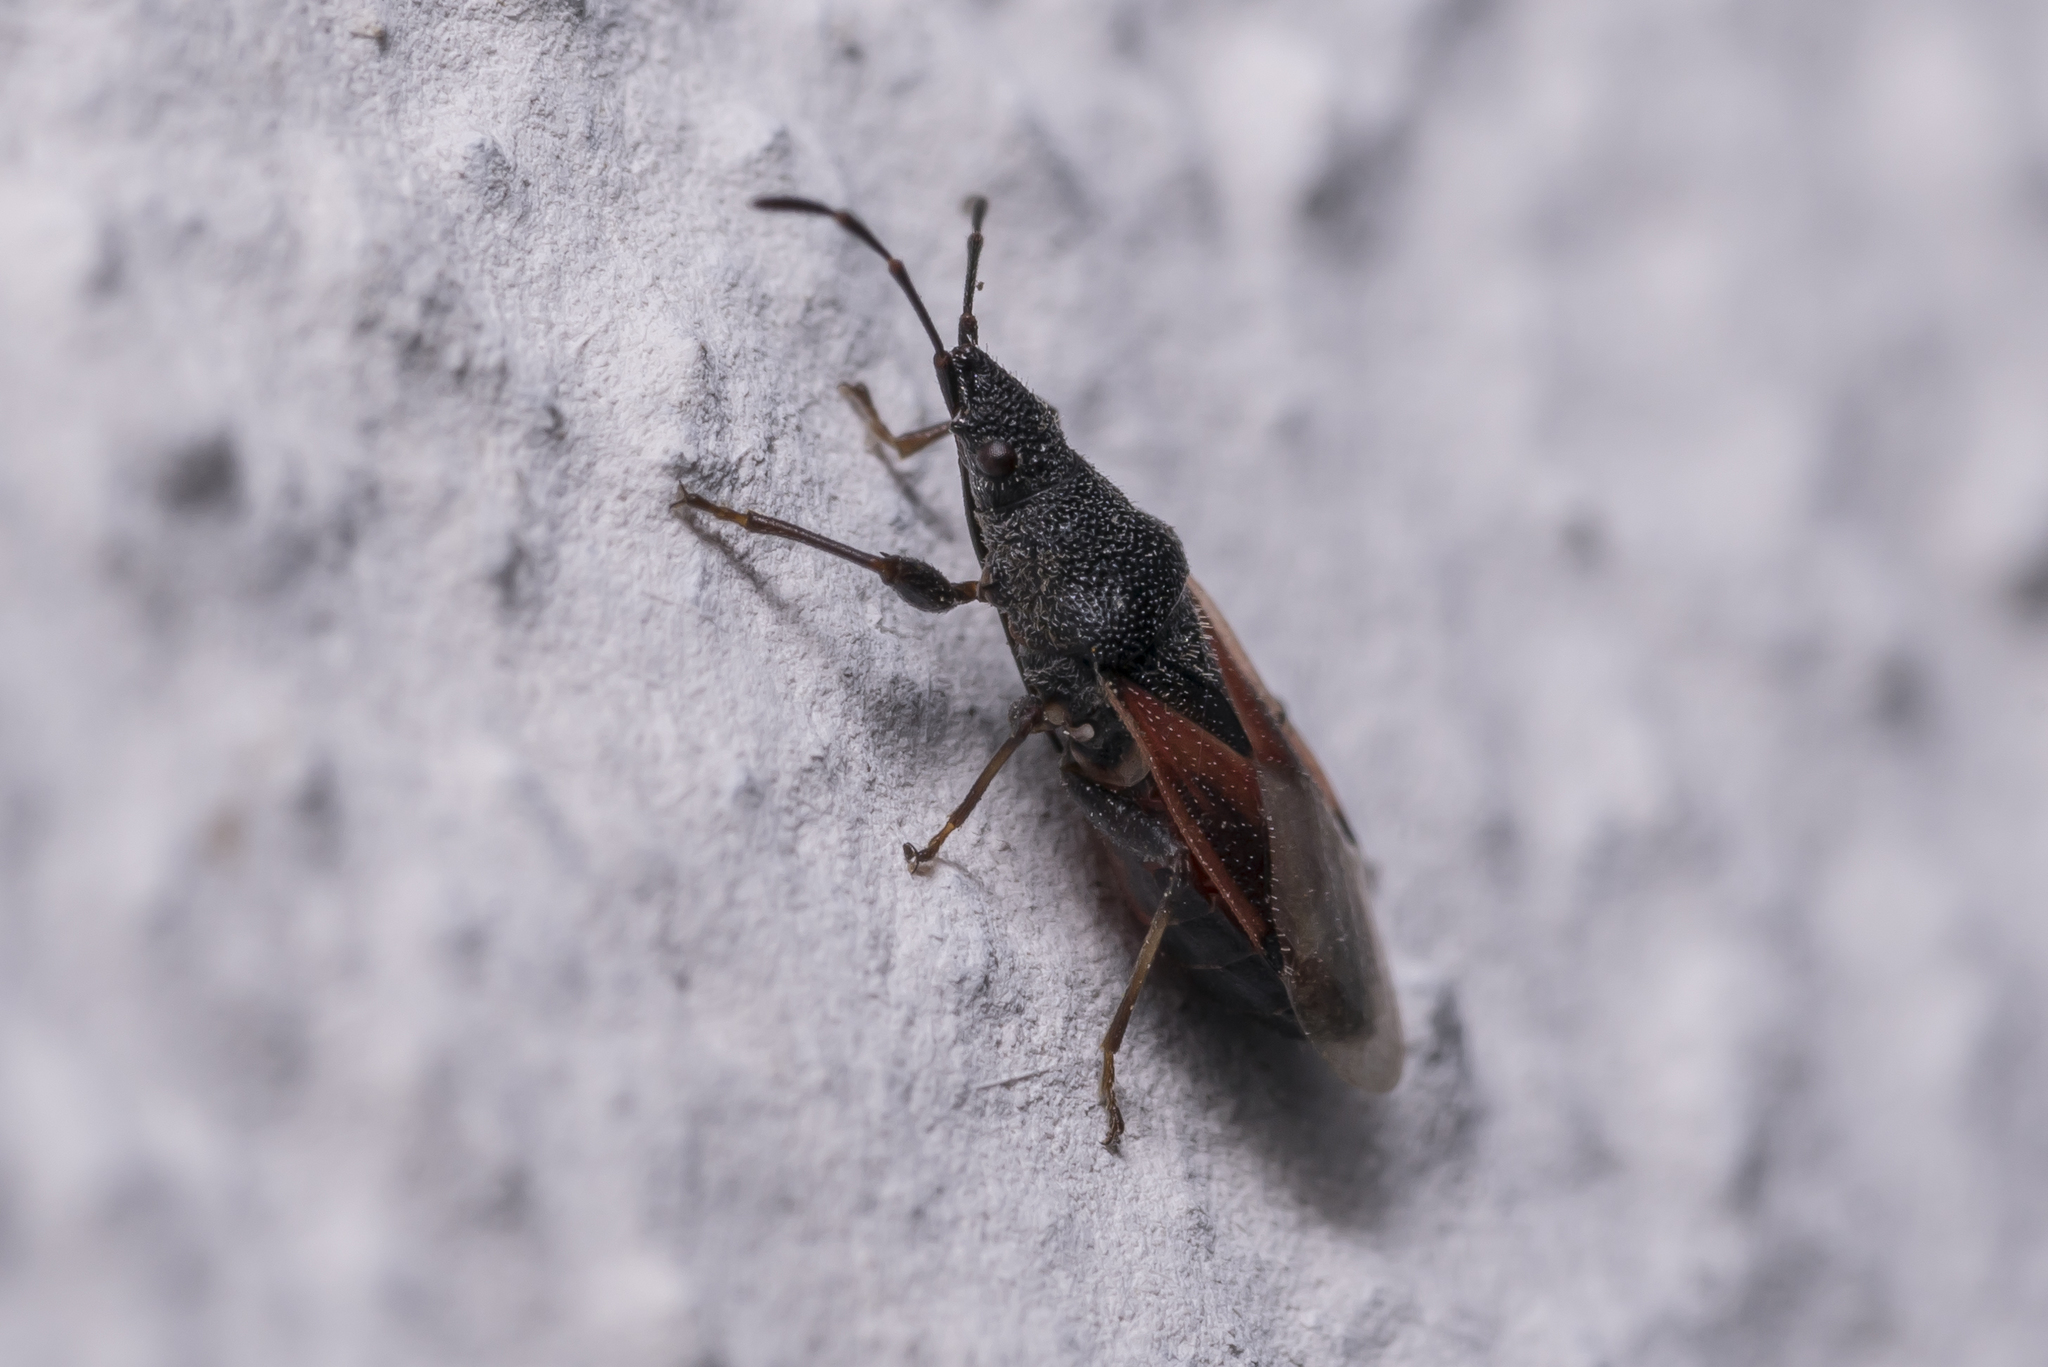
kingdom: Animalia
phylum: Arthropoda
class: Insecta
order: Hemiptera
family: Oxycarenidae
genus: Oxycarenus
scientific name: Oxycarenus lavaterae
